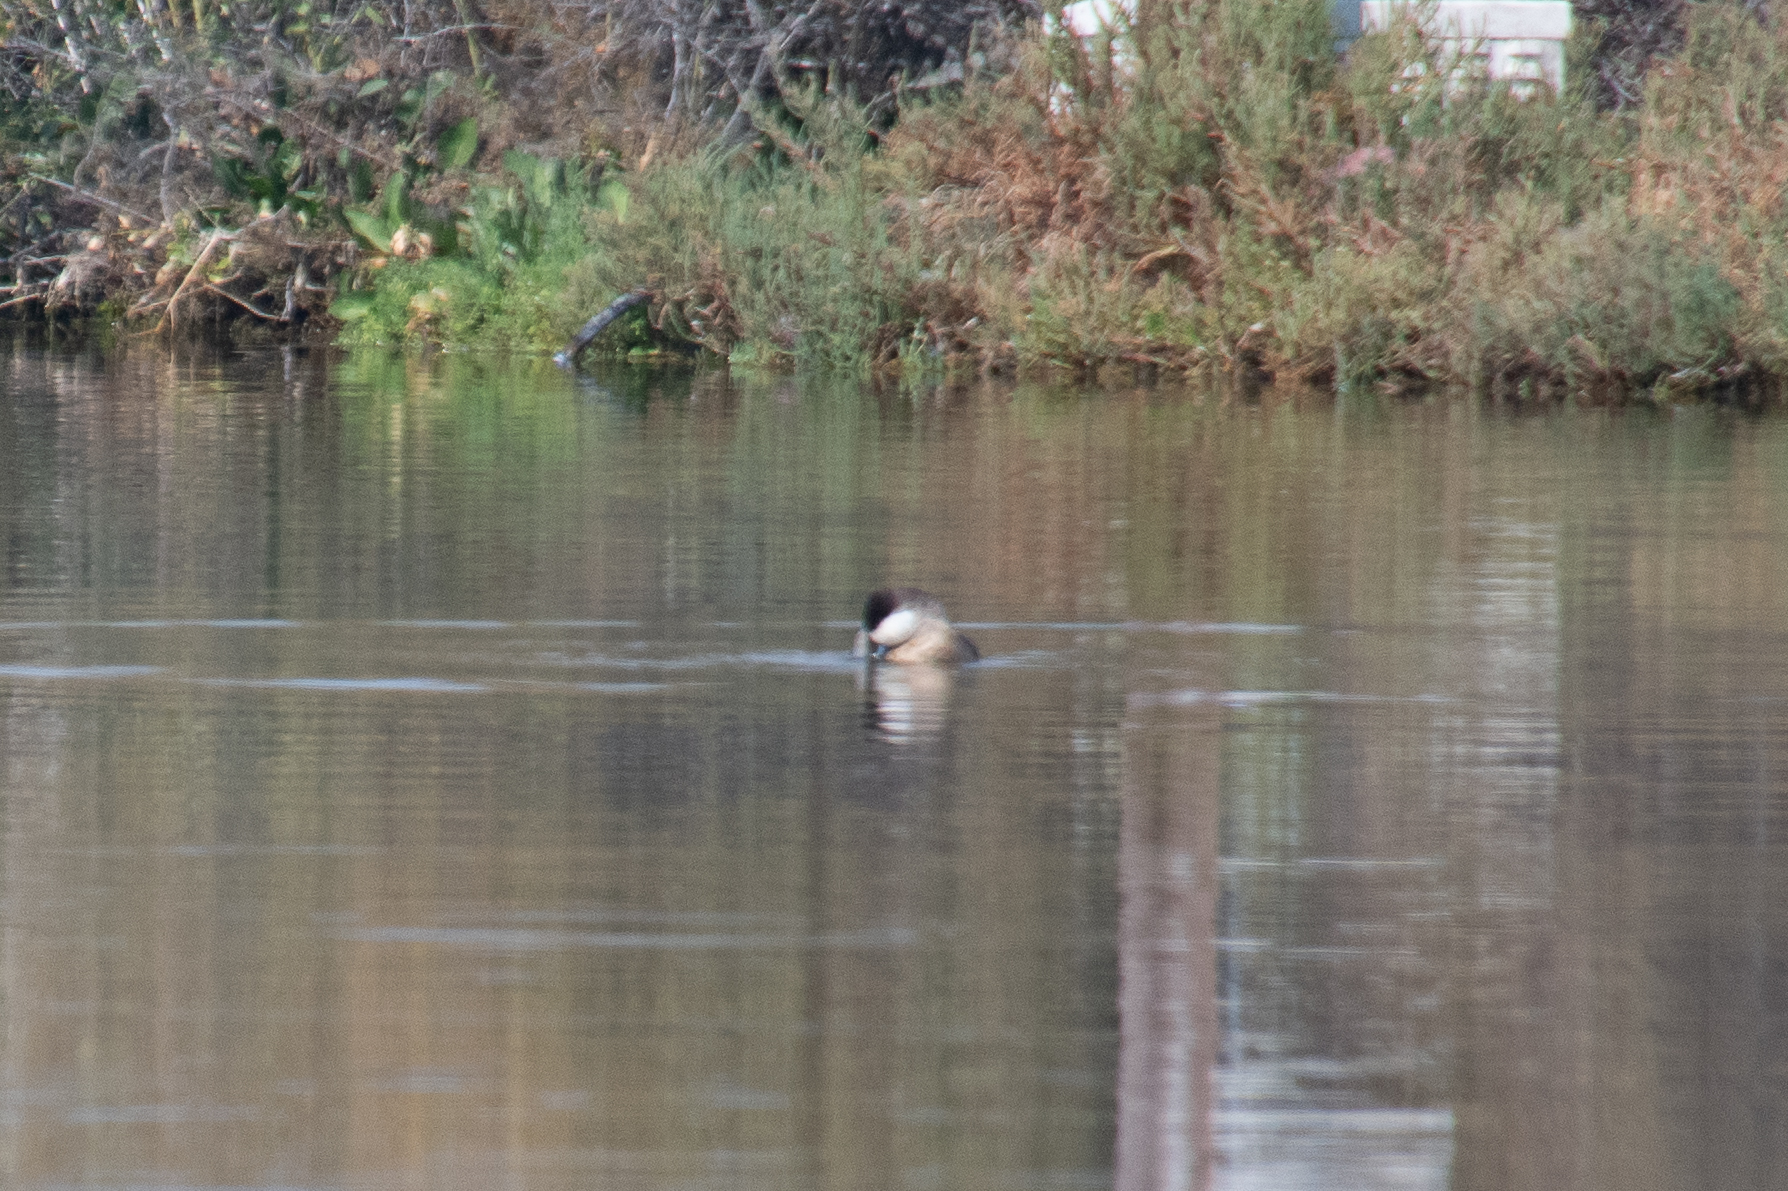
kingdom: Animalia
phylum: Chordata
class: Aves
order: Anseriformes
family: Anatidae
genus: Oxyura
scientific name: Oxyura jamaicensis
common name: Ruddy duck
